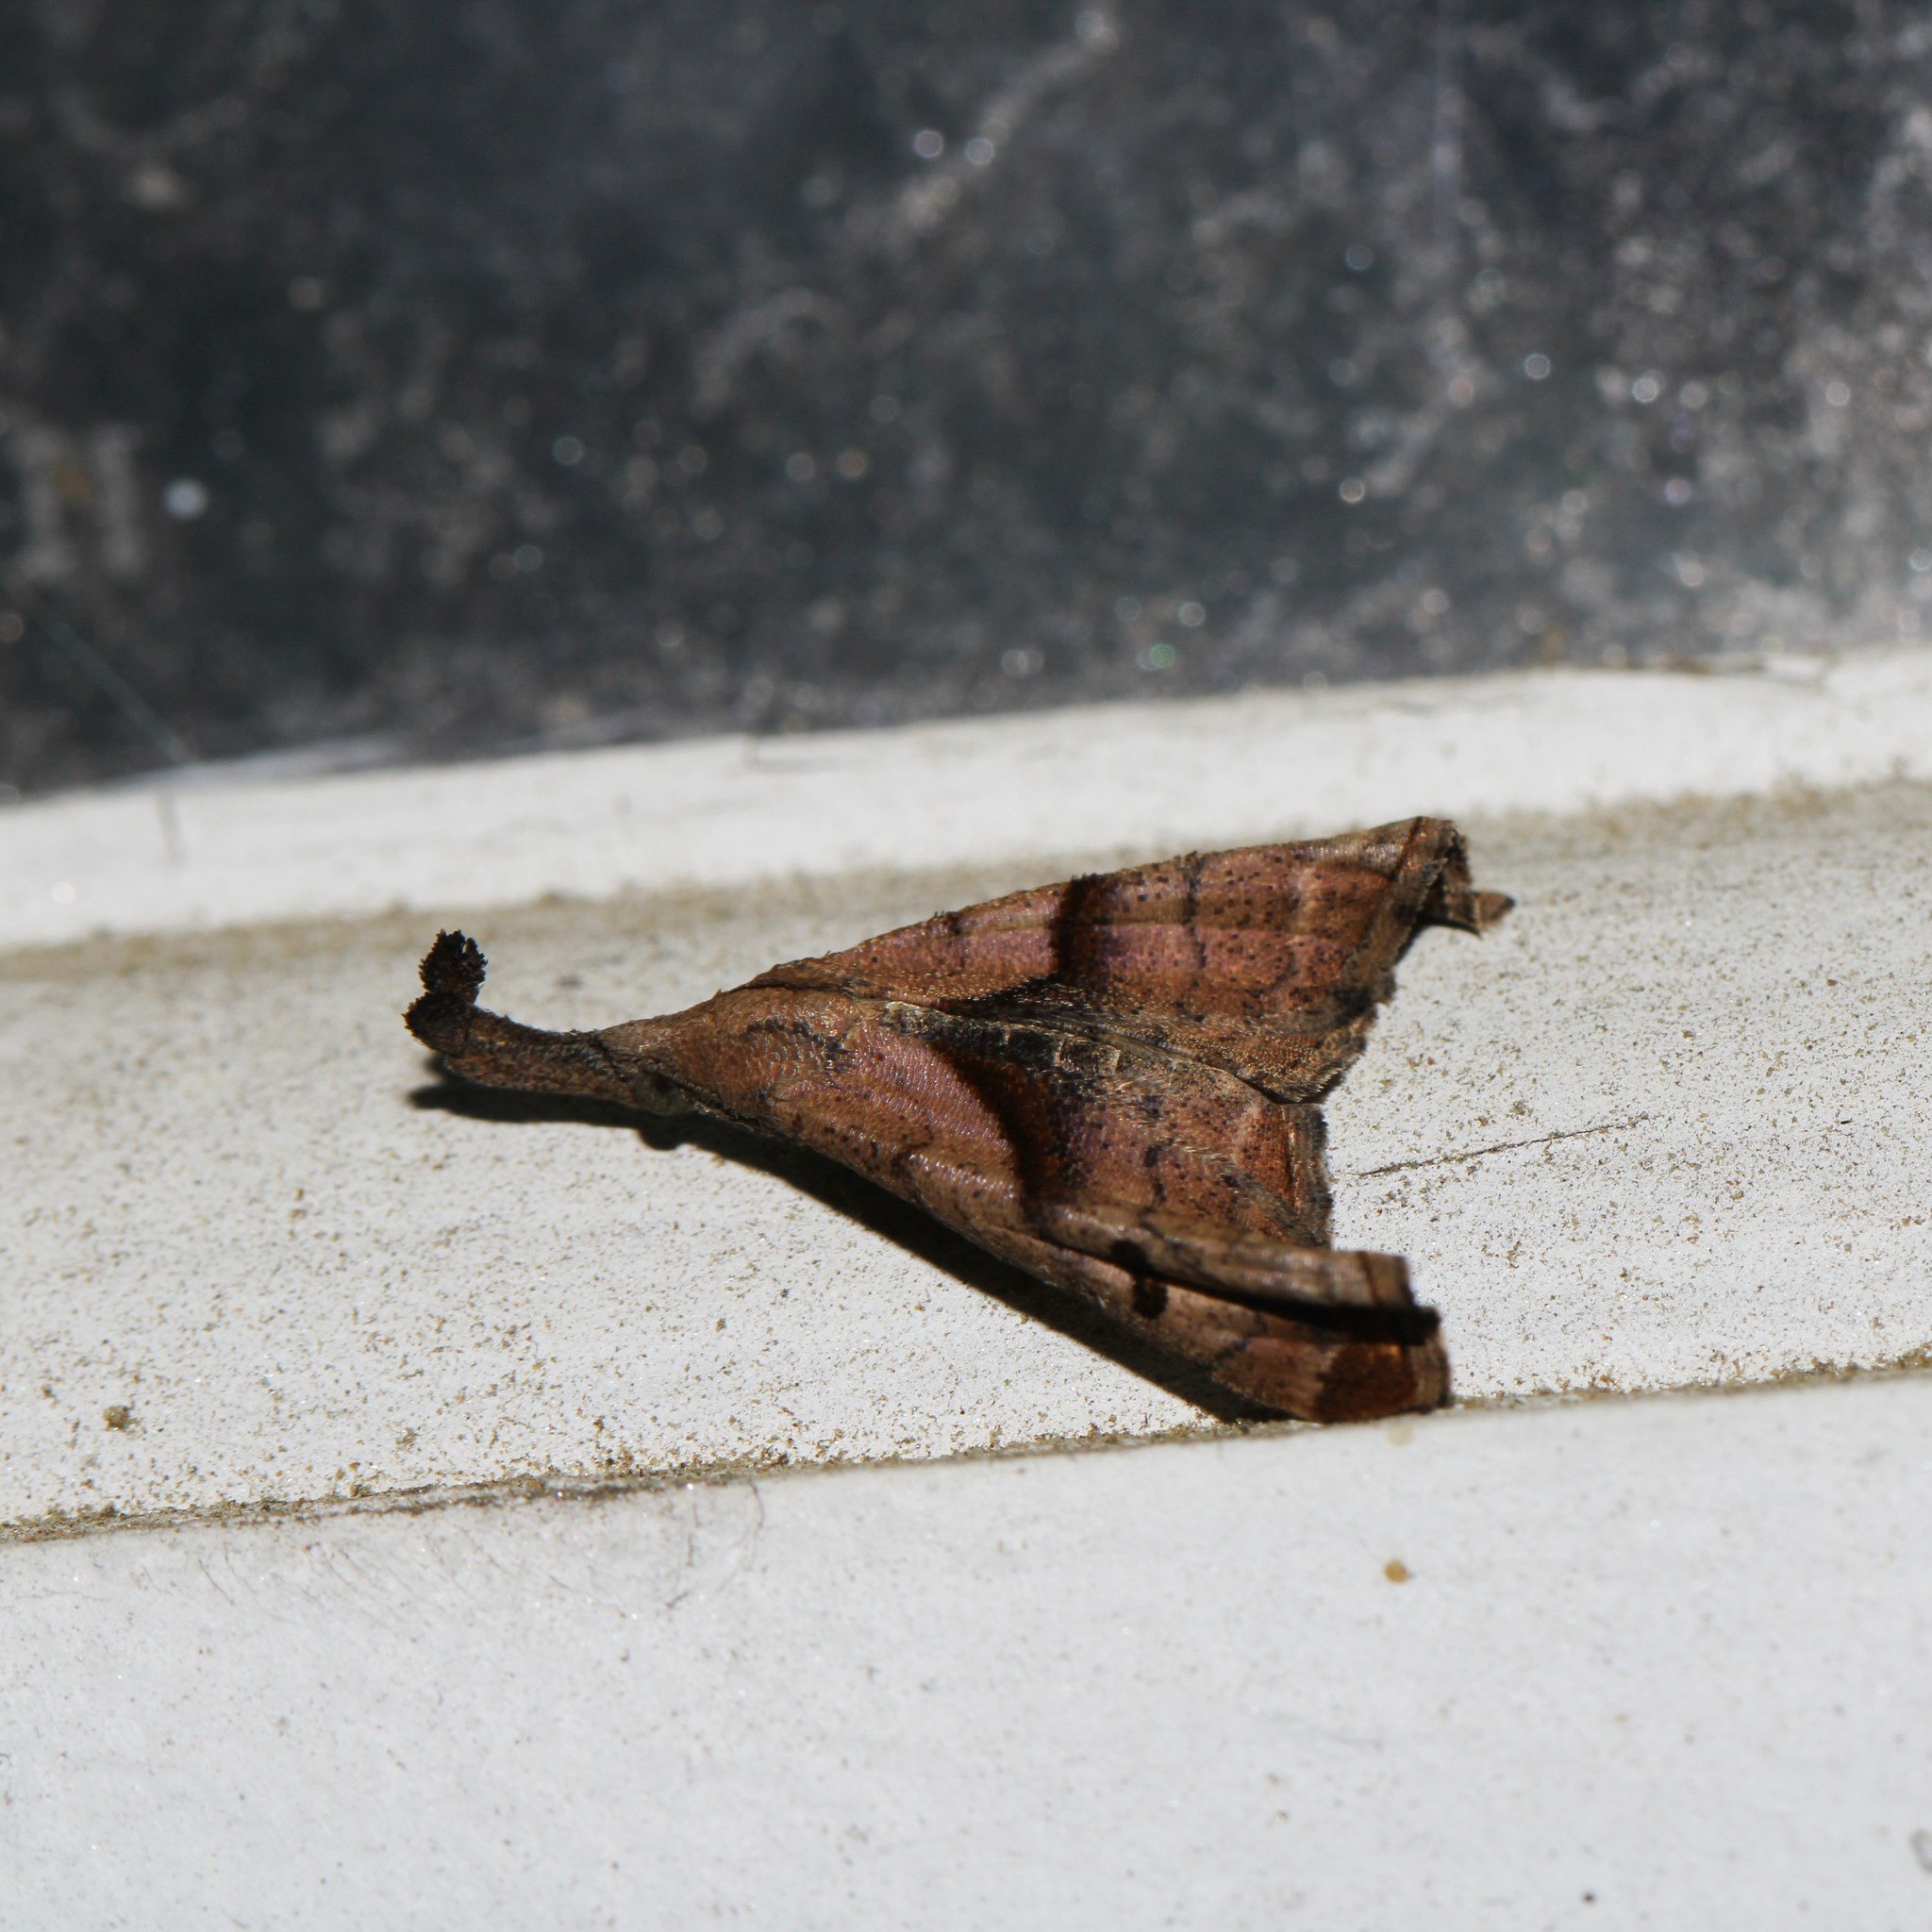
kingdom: Animalia
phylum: Arthropoda
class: Insecta
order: Lepidoptera
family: Erebidae
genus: Palthis
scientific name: Palthis angulalis
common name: Dark-spotted palthis moth
